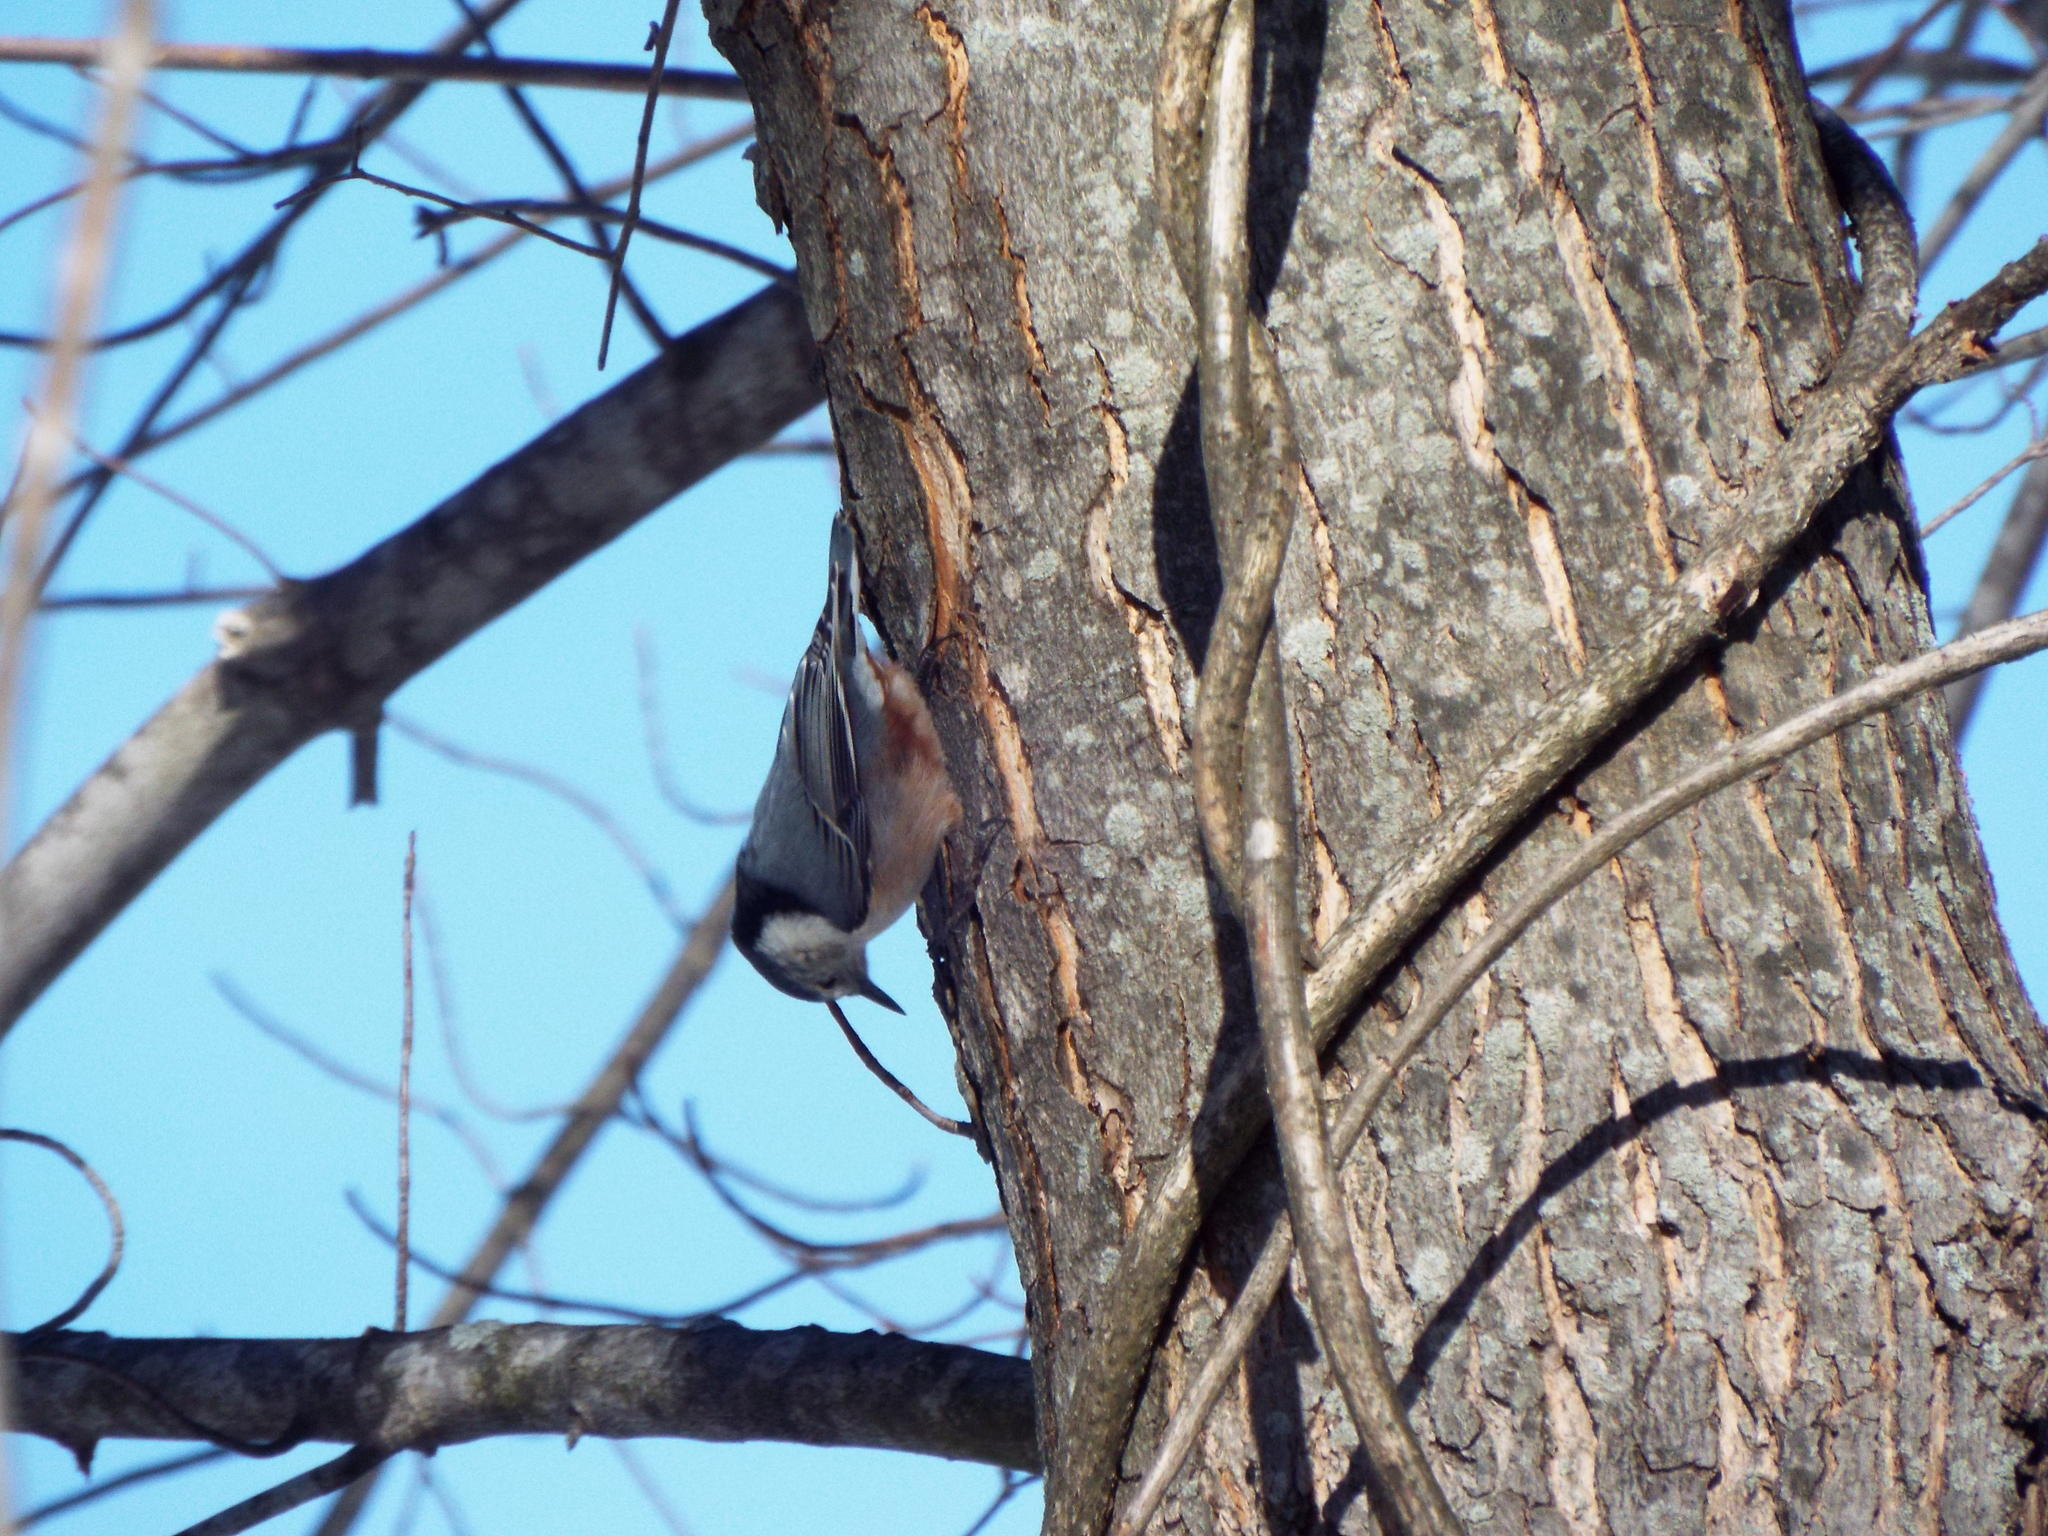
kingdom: Animalia
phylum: Chordata
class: Aves
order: Passeriformes
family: Sittidae
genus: Sitta
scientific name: Sitta carolinensis
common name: White-breasted nuthatch
